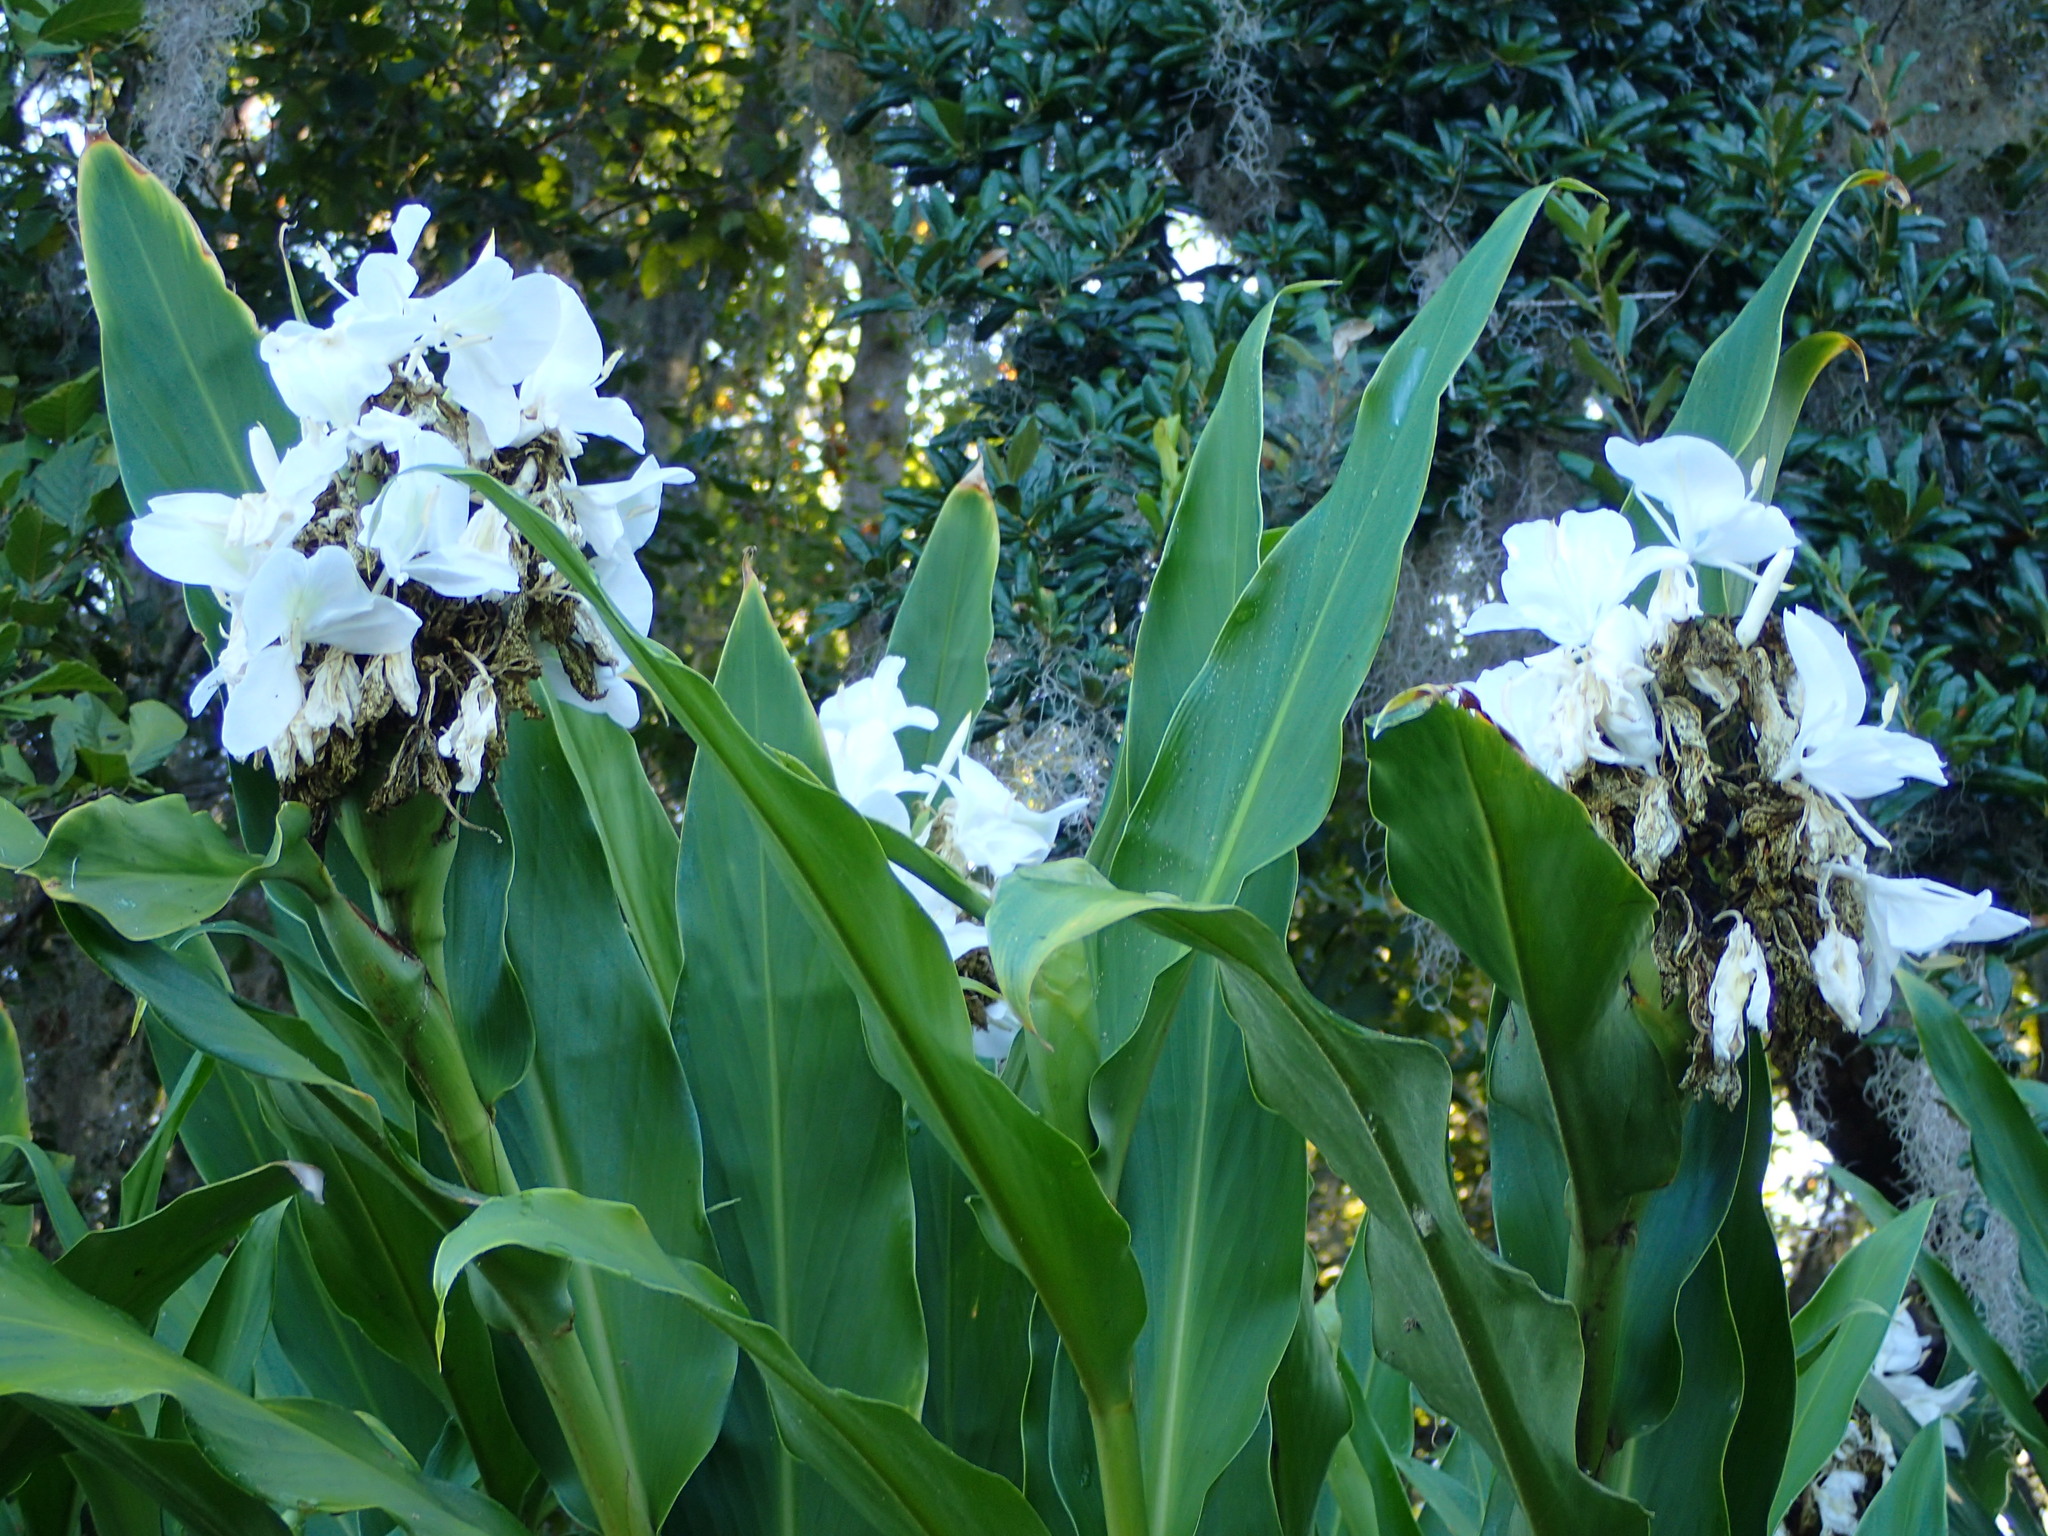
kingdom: Plantae
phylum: Tracheophyta
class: Liliopsida
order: Zingiberales
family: Zingiberaceae
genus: Hedychium
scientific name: Hedychium coronarium
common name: White garland-lily
